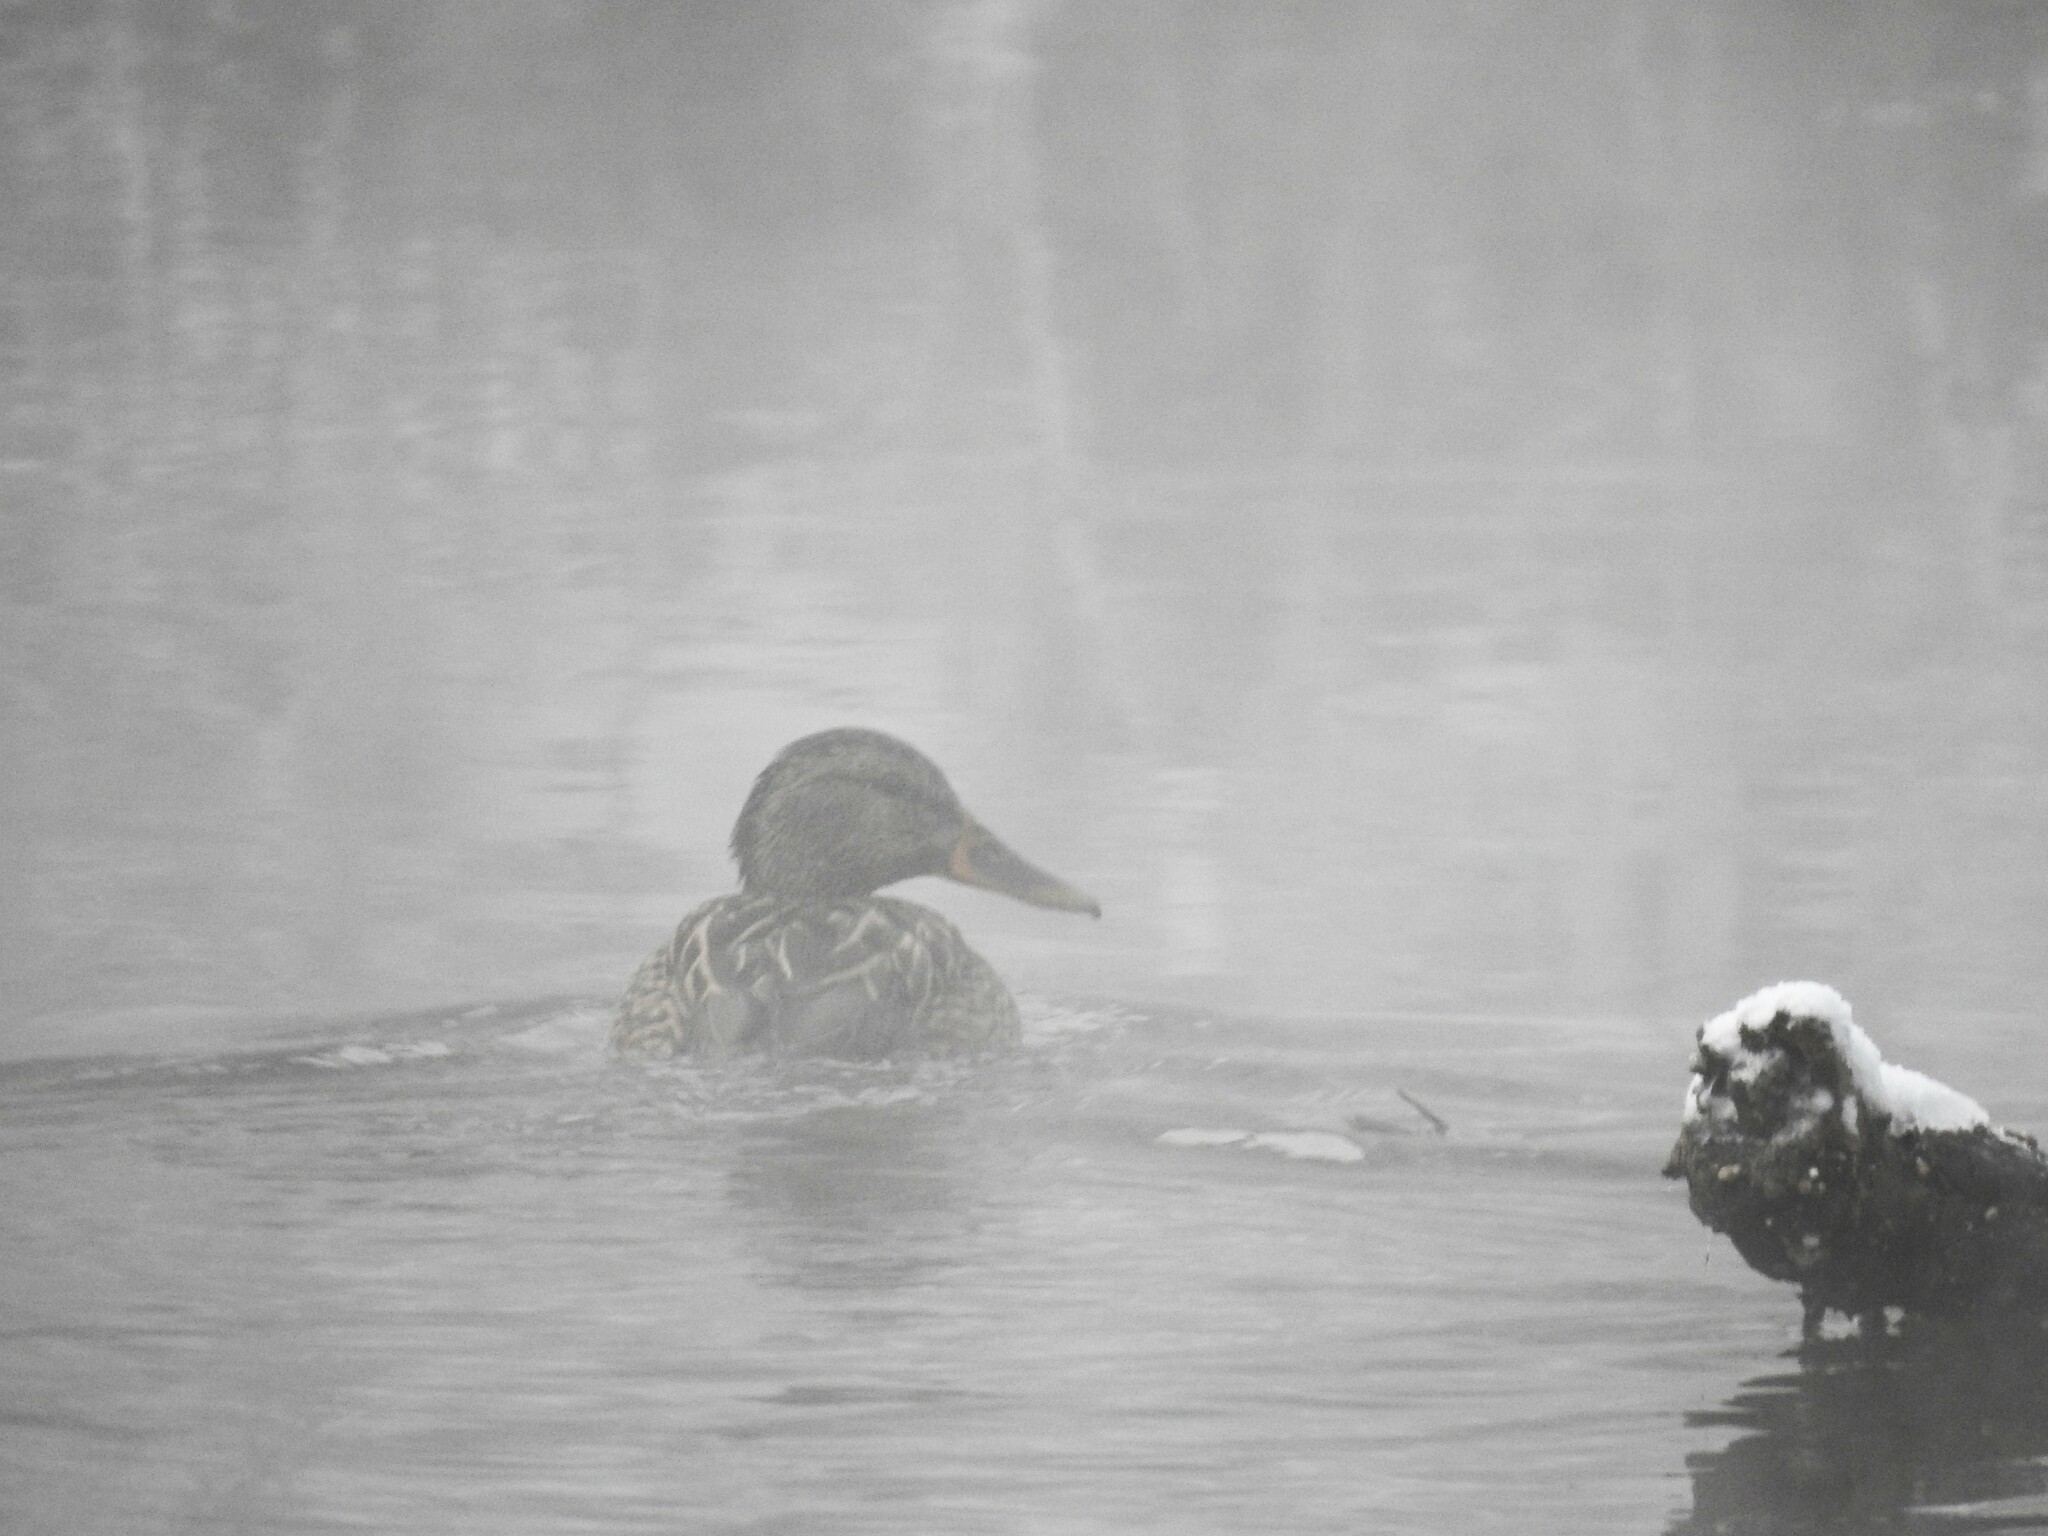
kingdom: Animalia
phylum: Chordata
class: Aves
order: Anseriformes
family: Anatidae
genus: Anas
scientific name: Anas platyrhynchos
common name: Mallard
